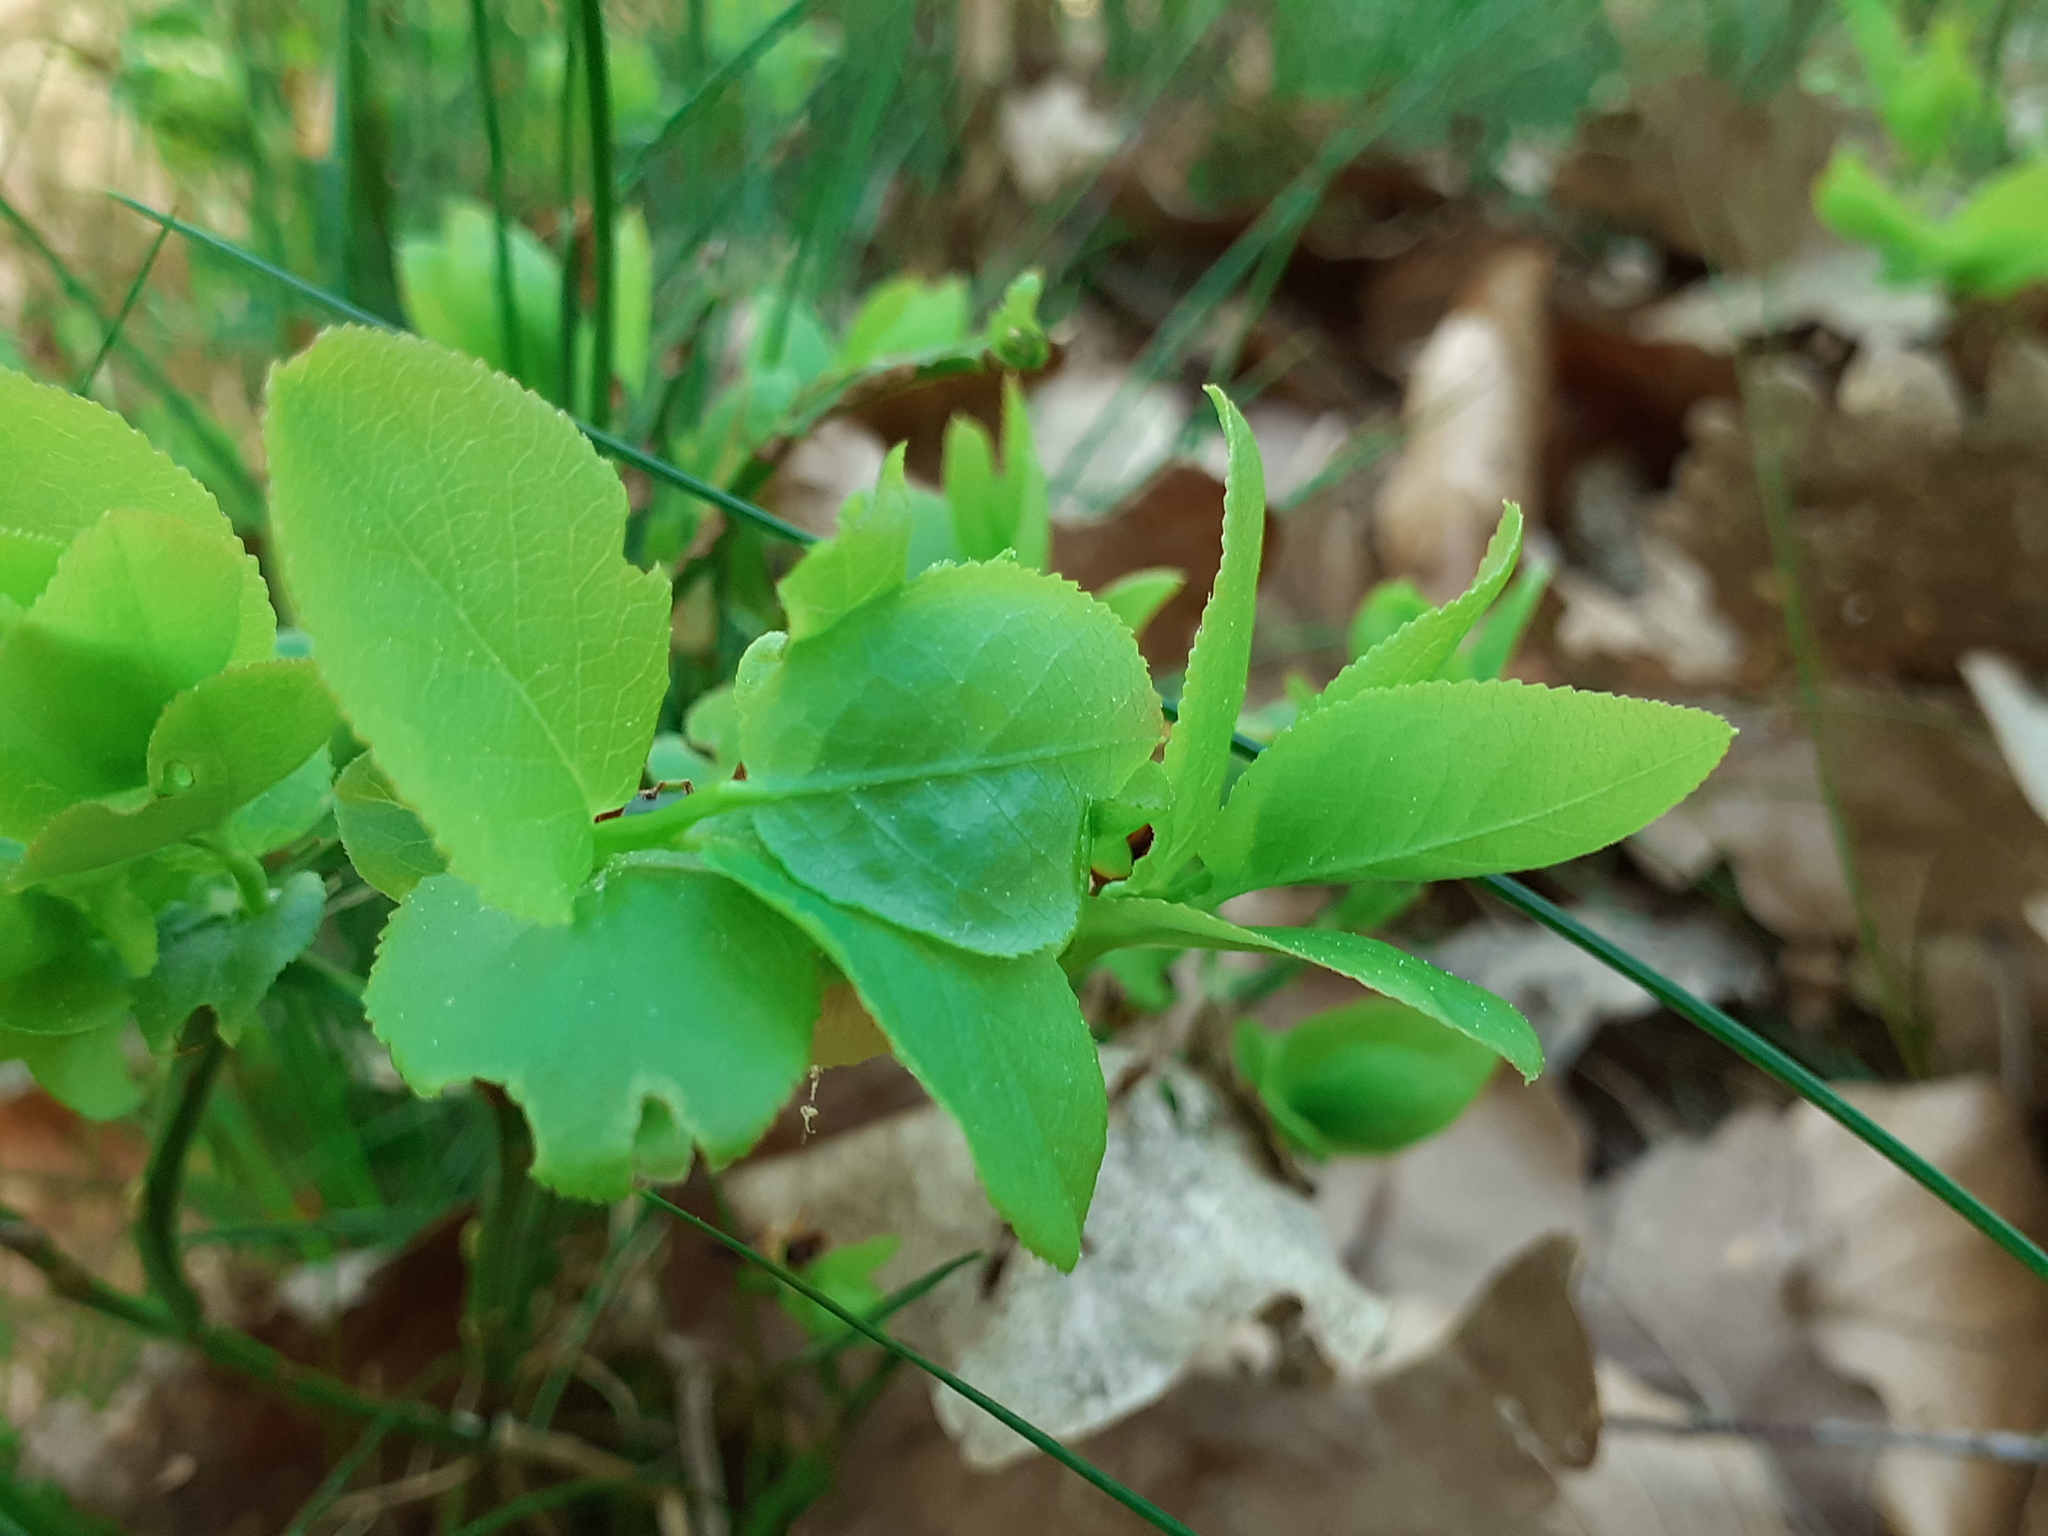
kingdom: Plantae
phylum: Tracheophyta
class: Magnoliopsida
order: Ericales
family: Ericaceae
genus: Vaccinium
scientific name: Vaccinium myrtillus
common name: Bilberry
